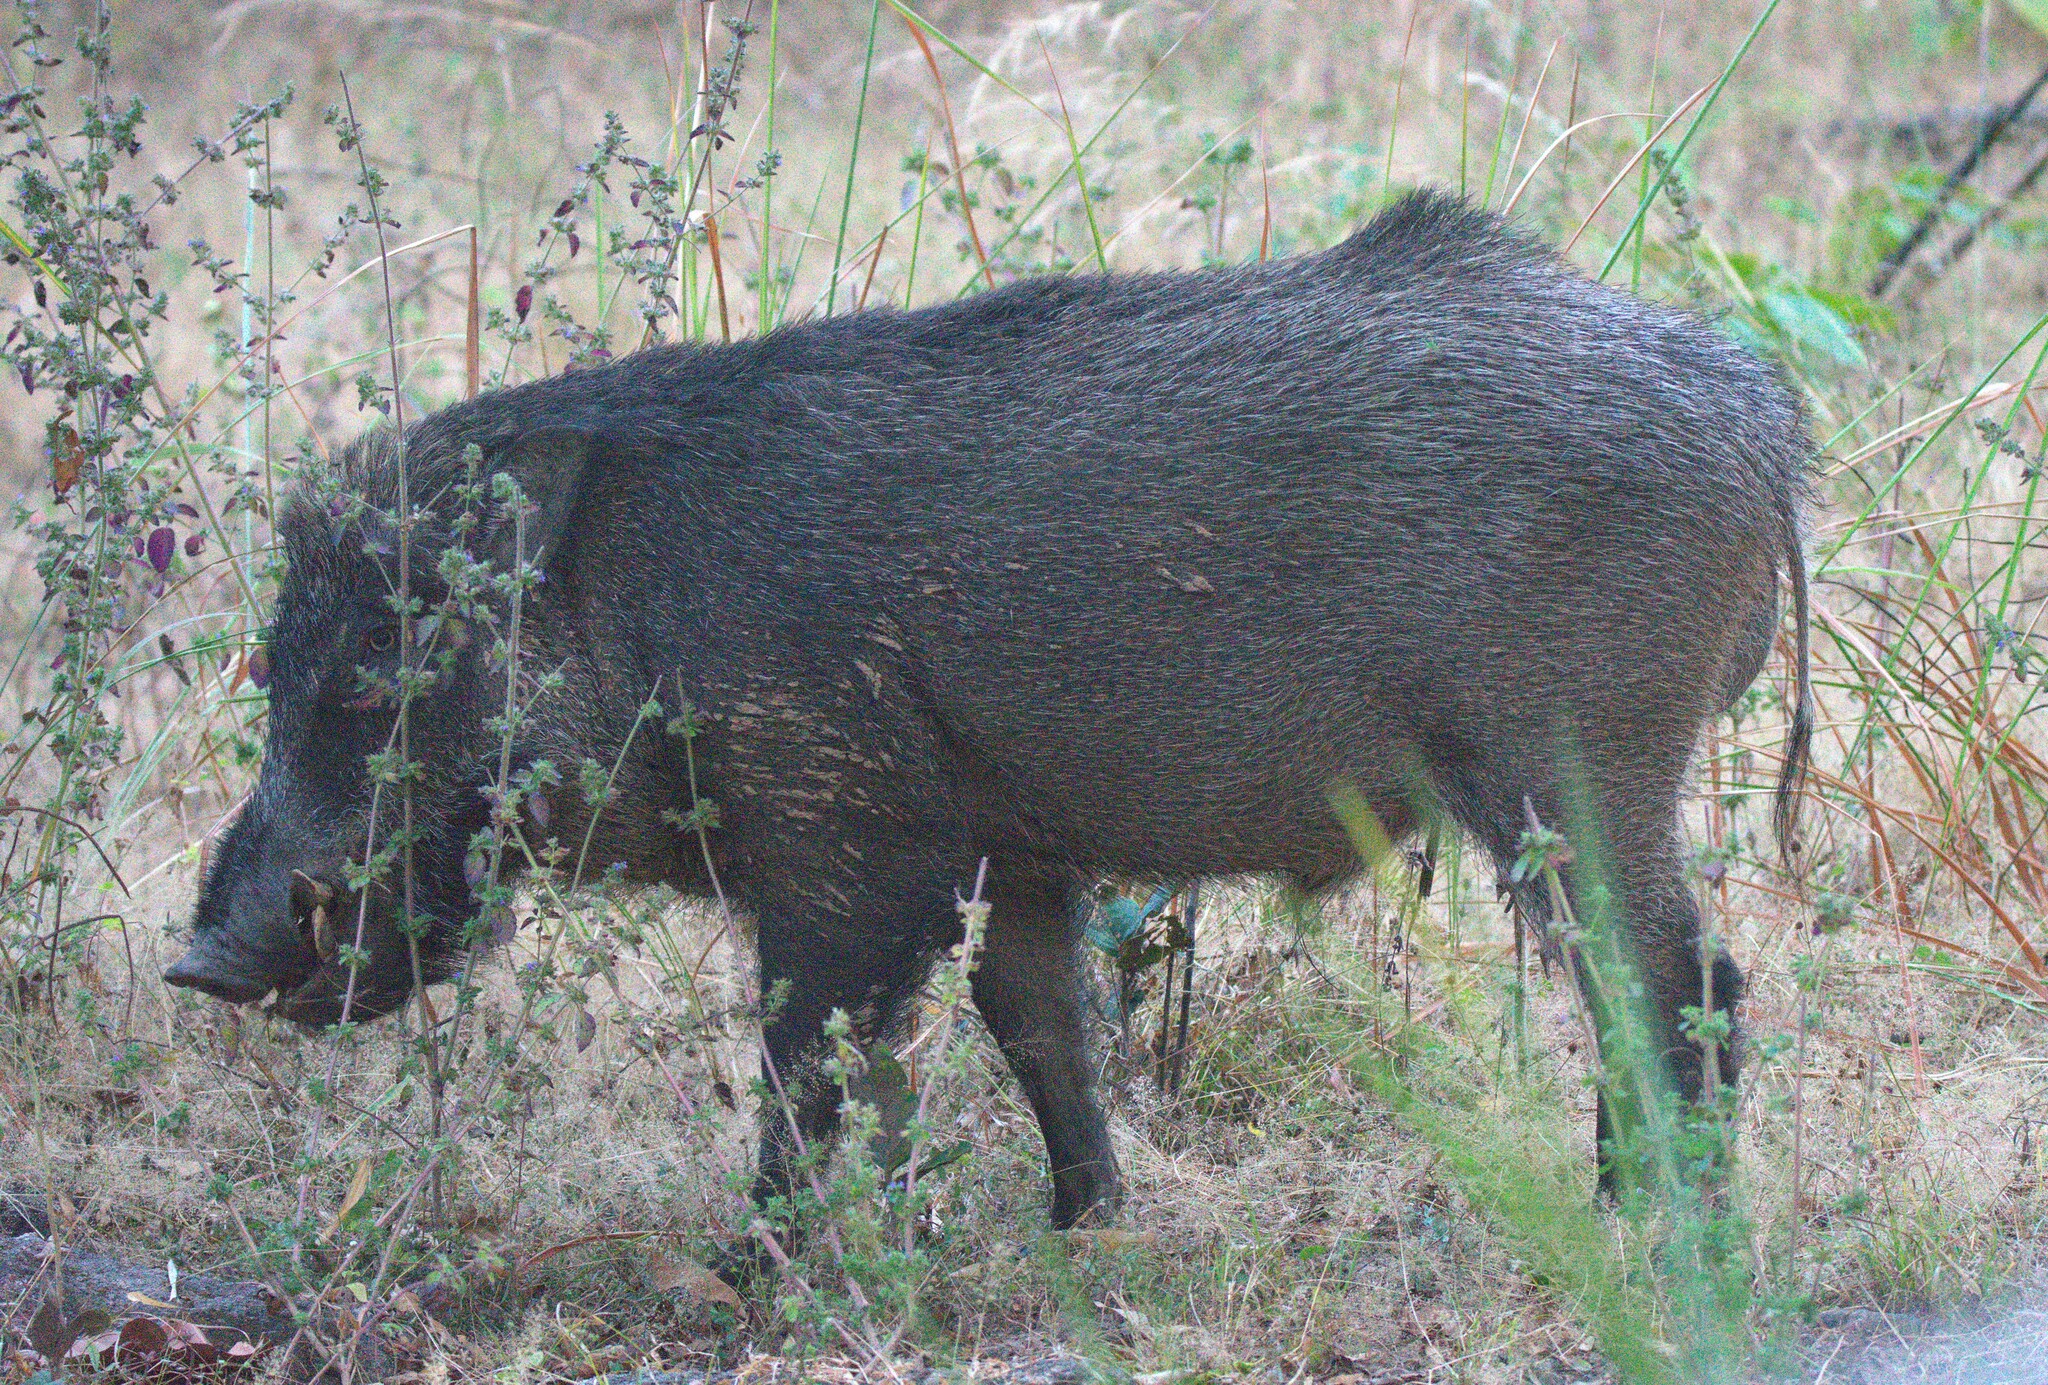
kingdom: Animalia
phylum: Chordata
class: Mammalia
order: Artiodactyla
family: Suidae
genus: Sus
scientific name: Sus scrofa
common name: Wild boar
